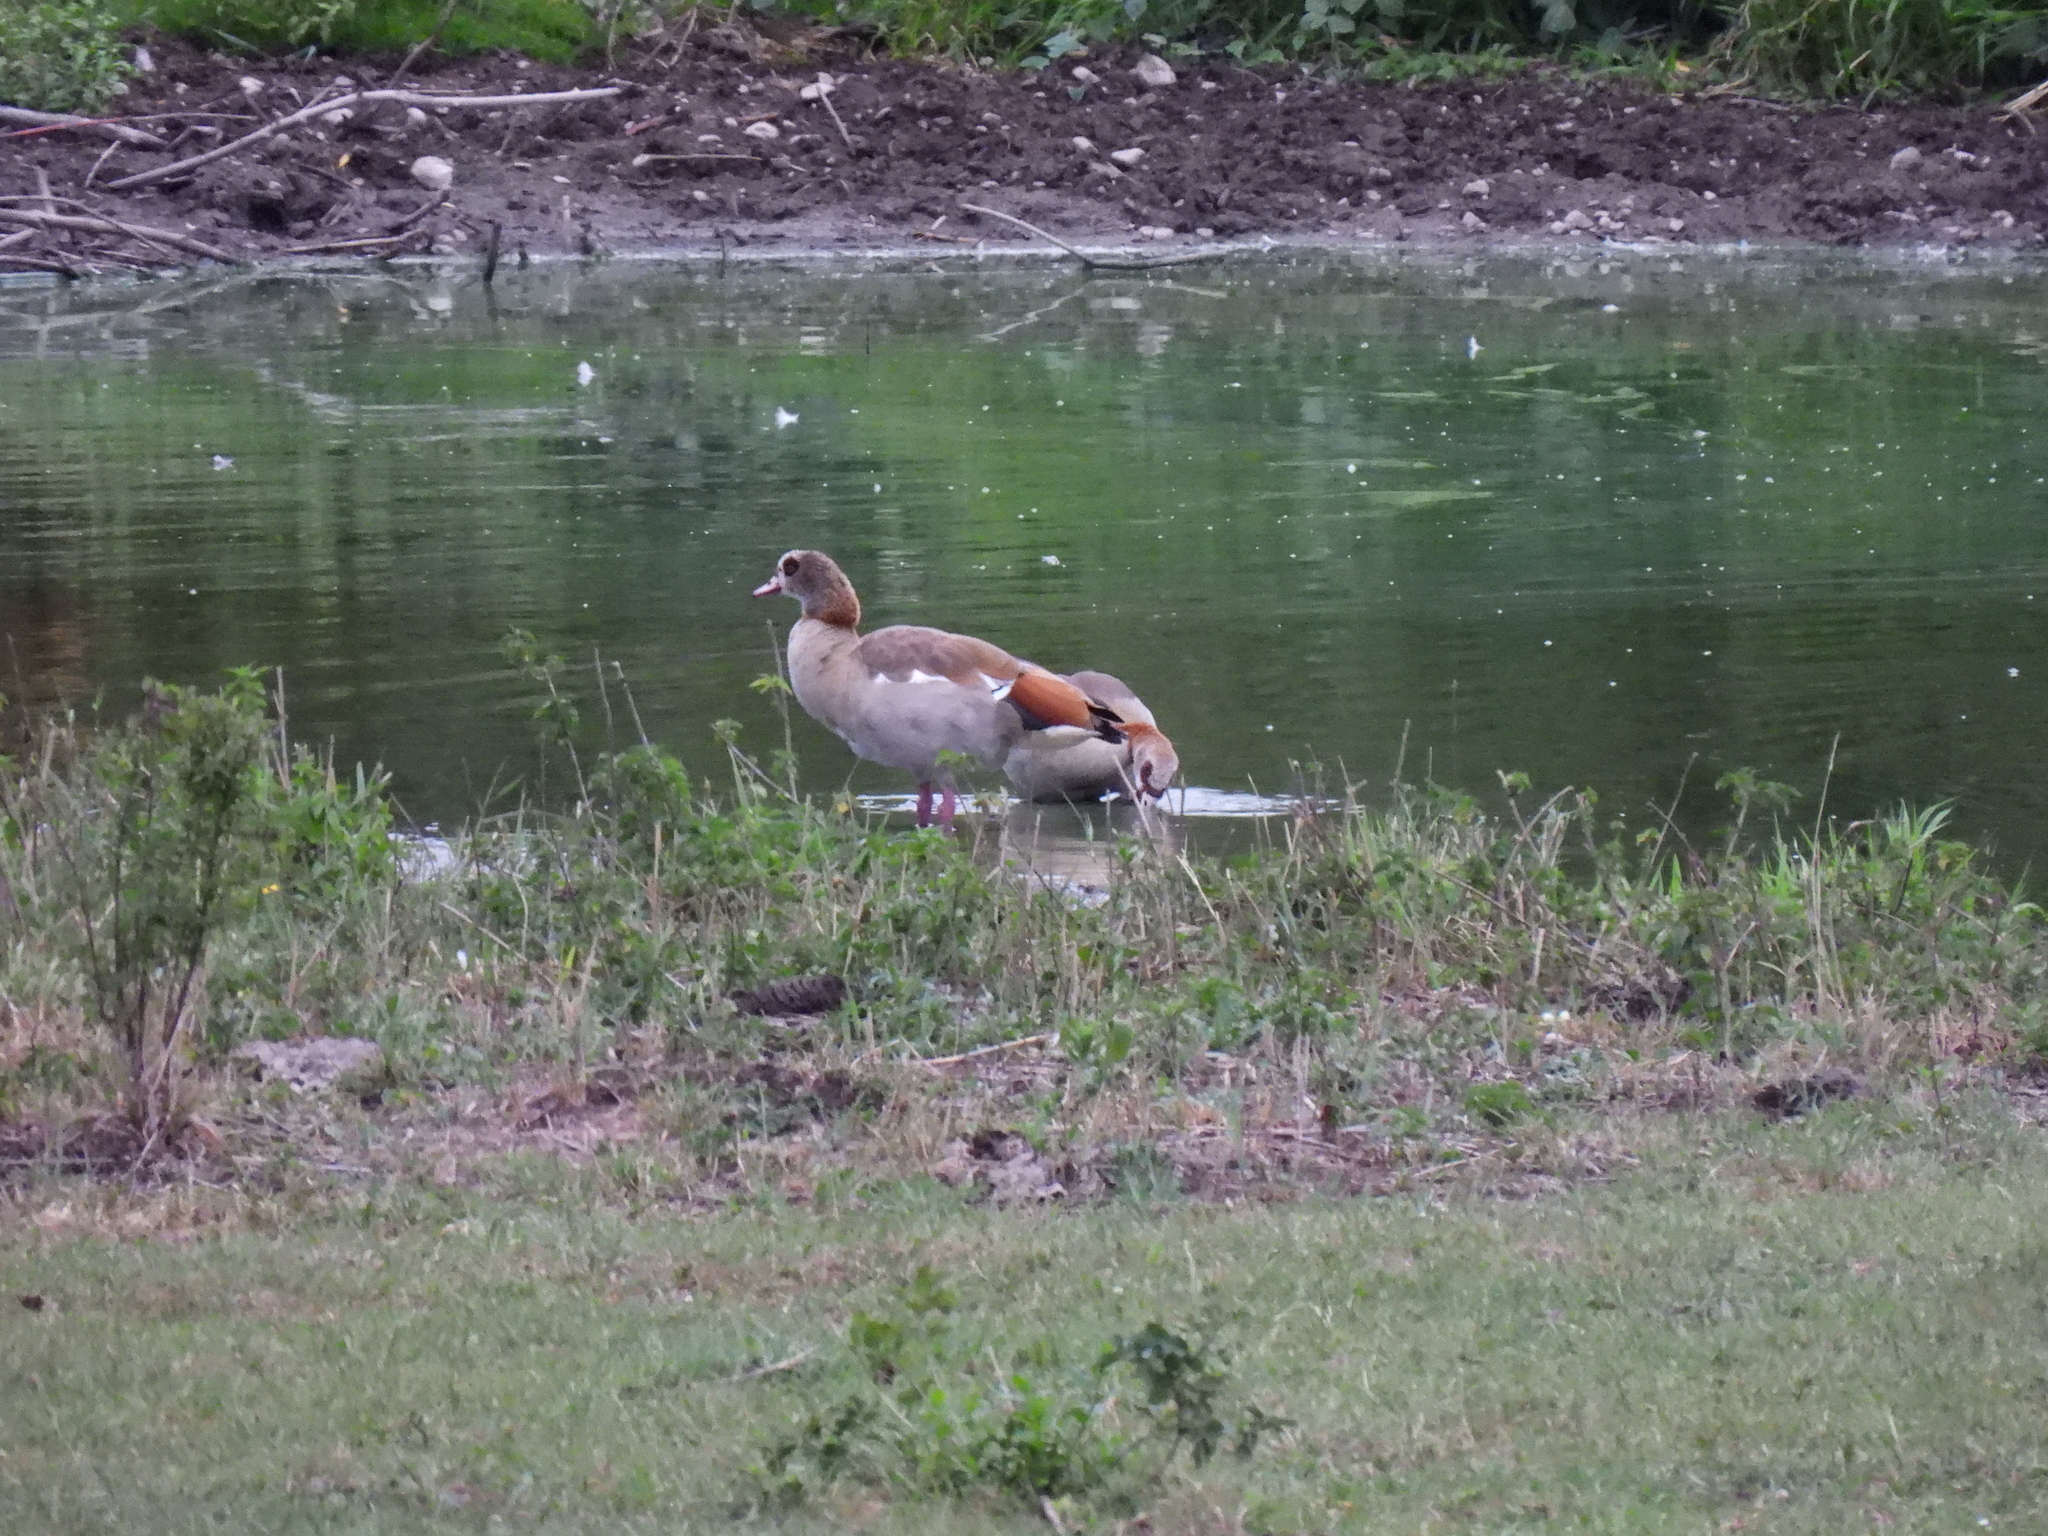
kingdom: Animalia
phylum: Chordata
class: Aves
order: Anseriformes
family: Anatidae
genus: Alopochen
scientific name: Alopochen aegyptiaca
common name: Egyptian goose
